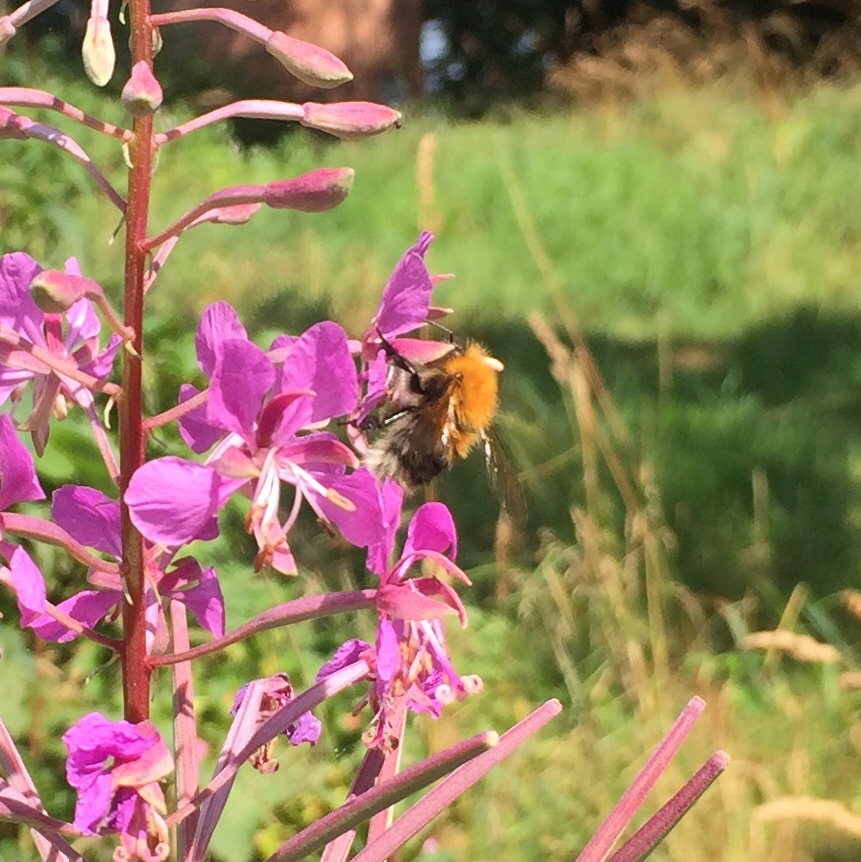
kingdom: Animalia
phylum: Arthropoda
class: Insecta
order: Hymenoptera
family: Apidae
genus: Bombus
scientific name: Bombus hypnorum
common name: New garden bumblebee
